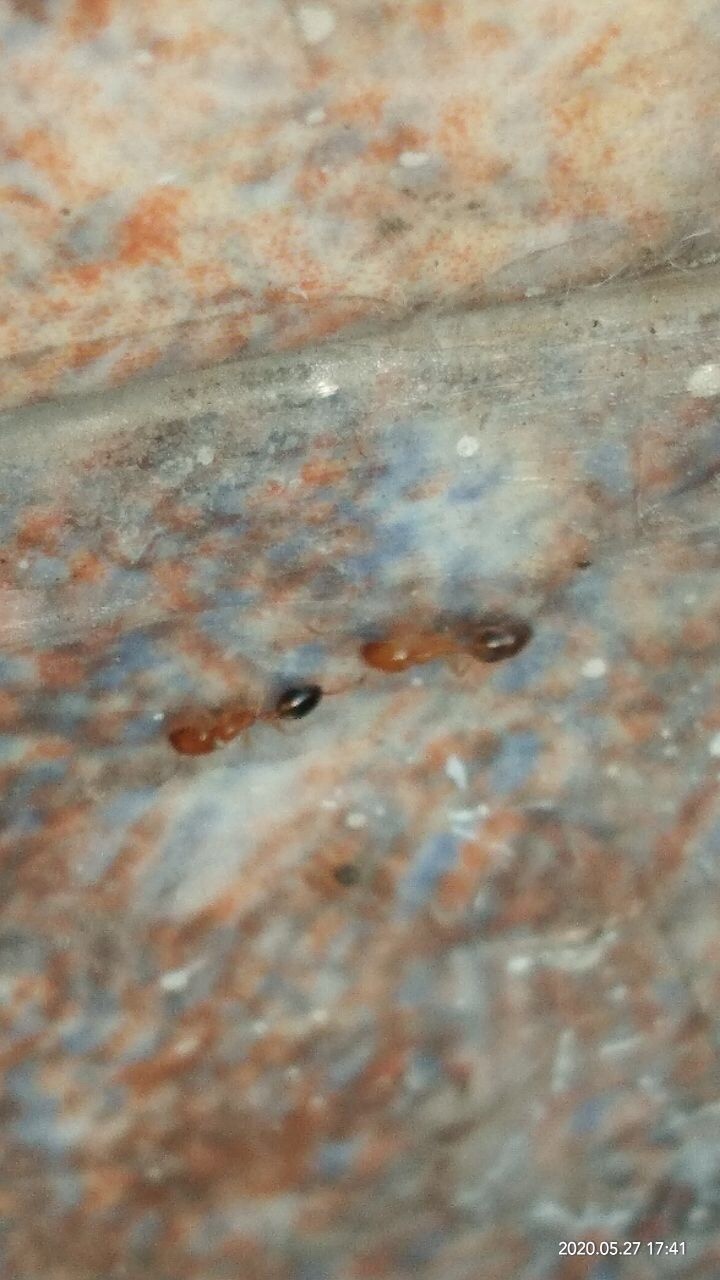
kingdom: Animalia
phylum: Arthropoda
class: Insecta
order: Hymenoptera
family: Formicidae
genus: Monomorium
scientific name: Monomorium destructor
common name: Destructive trailing ant
